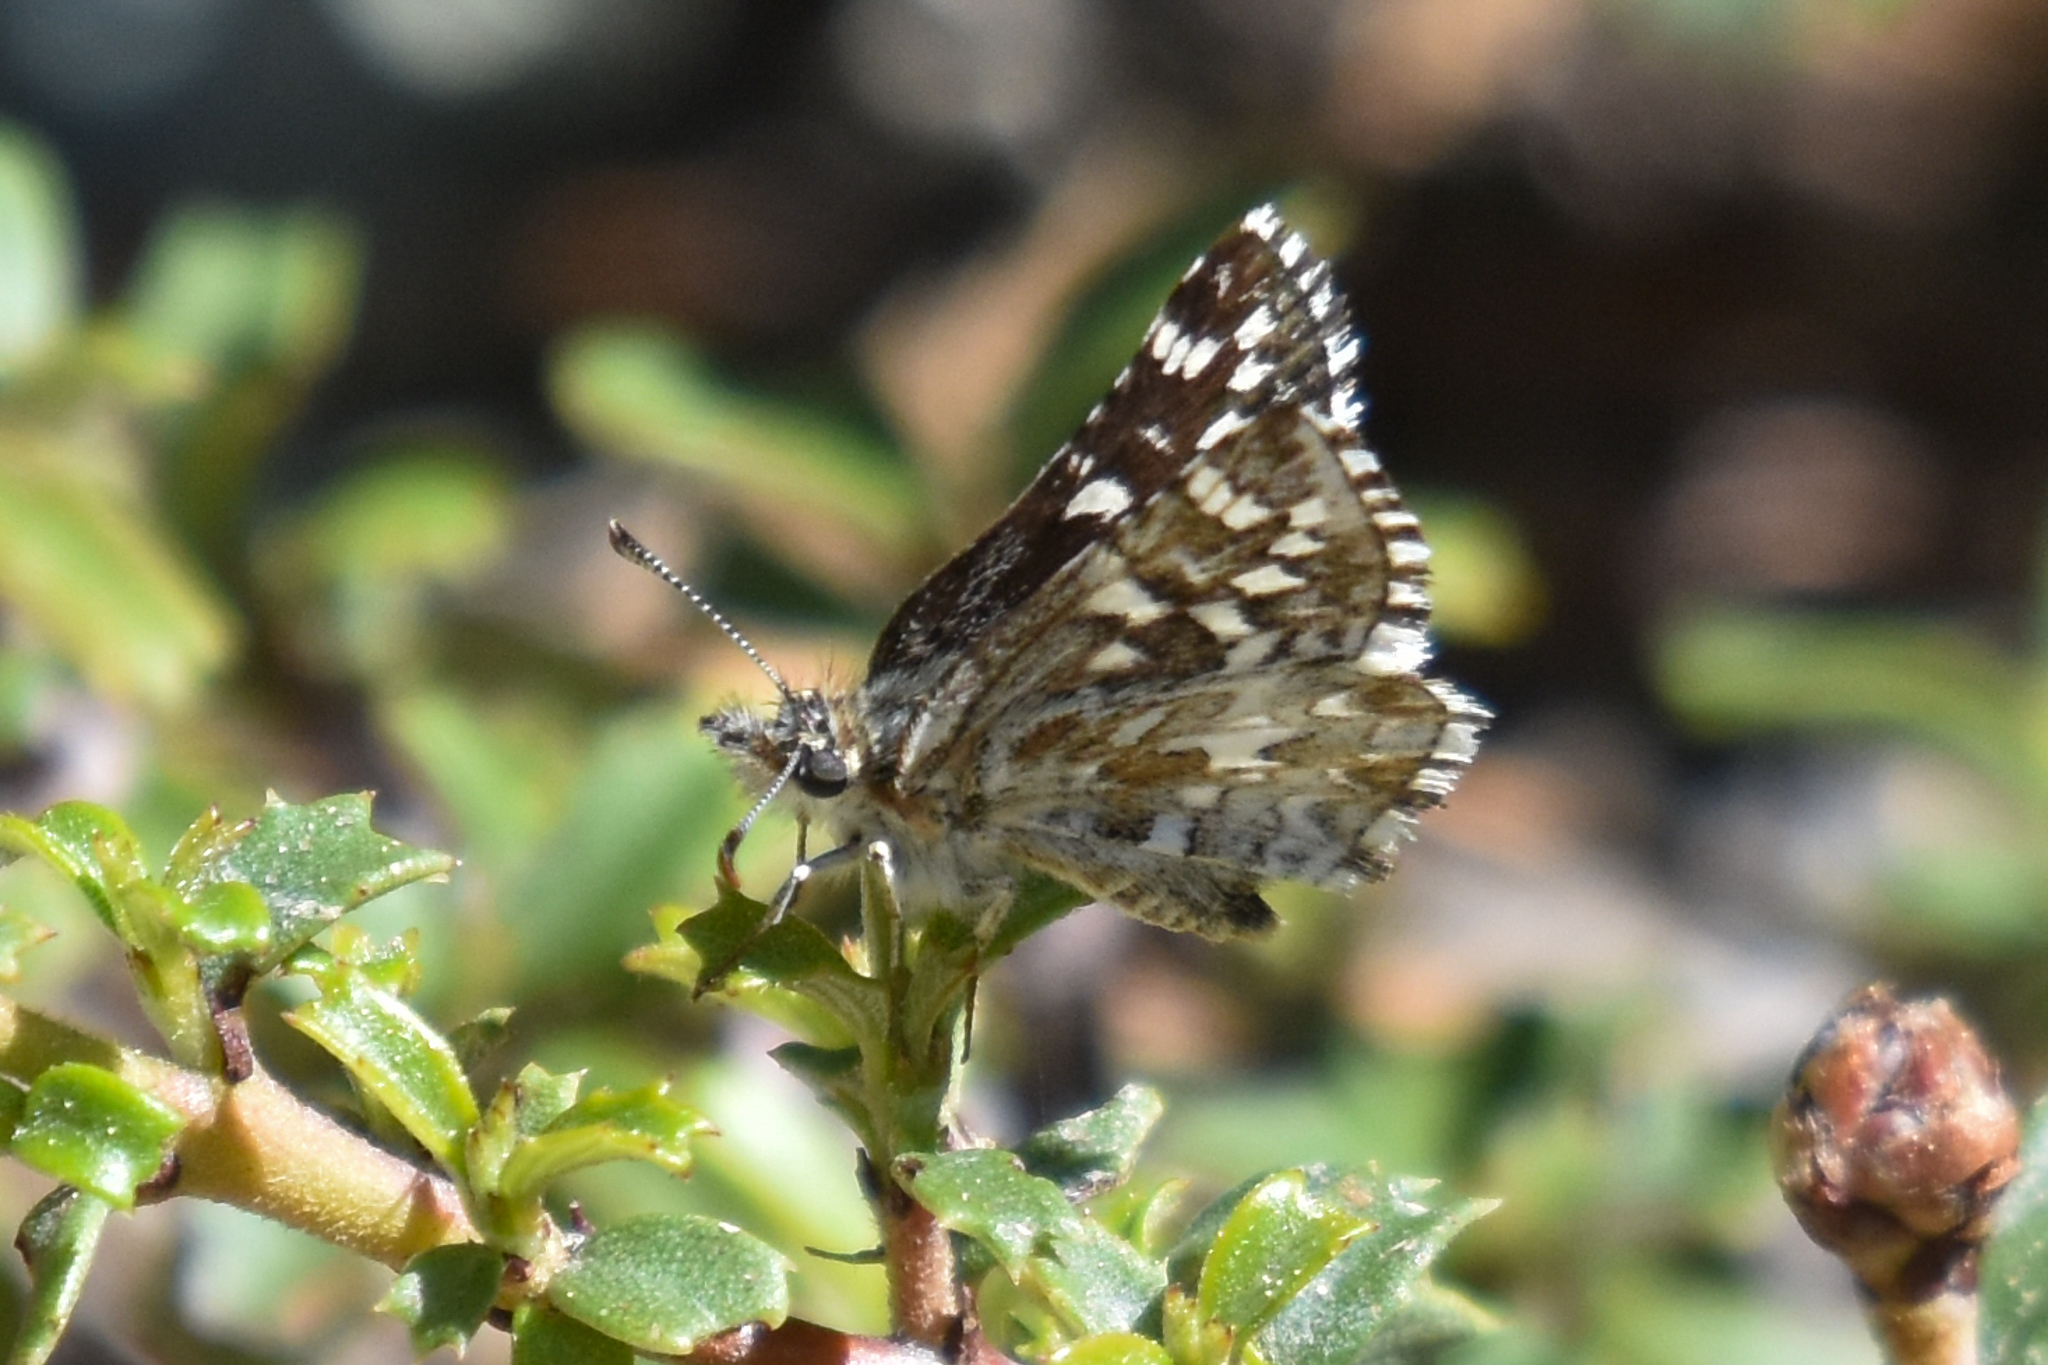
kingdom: Animalia
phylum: Arthropoda
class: Insecta
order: Lepidoptera
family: Hesperiidae
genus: Pyrgus
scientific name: Pyrgus ruralis
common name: Two-banded checkered-skipper
